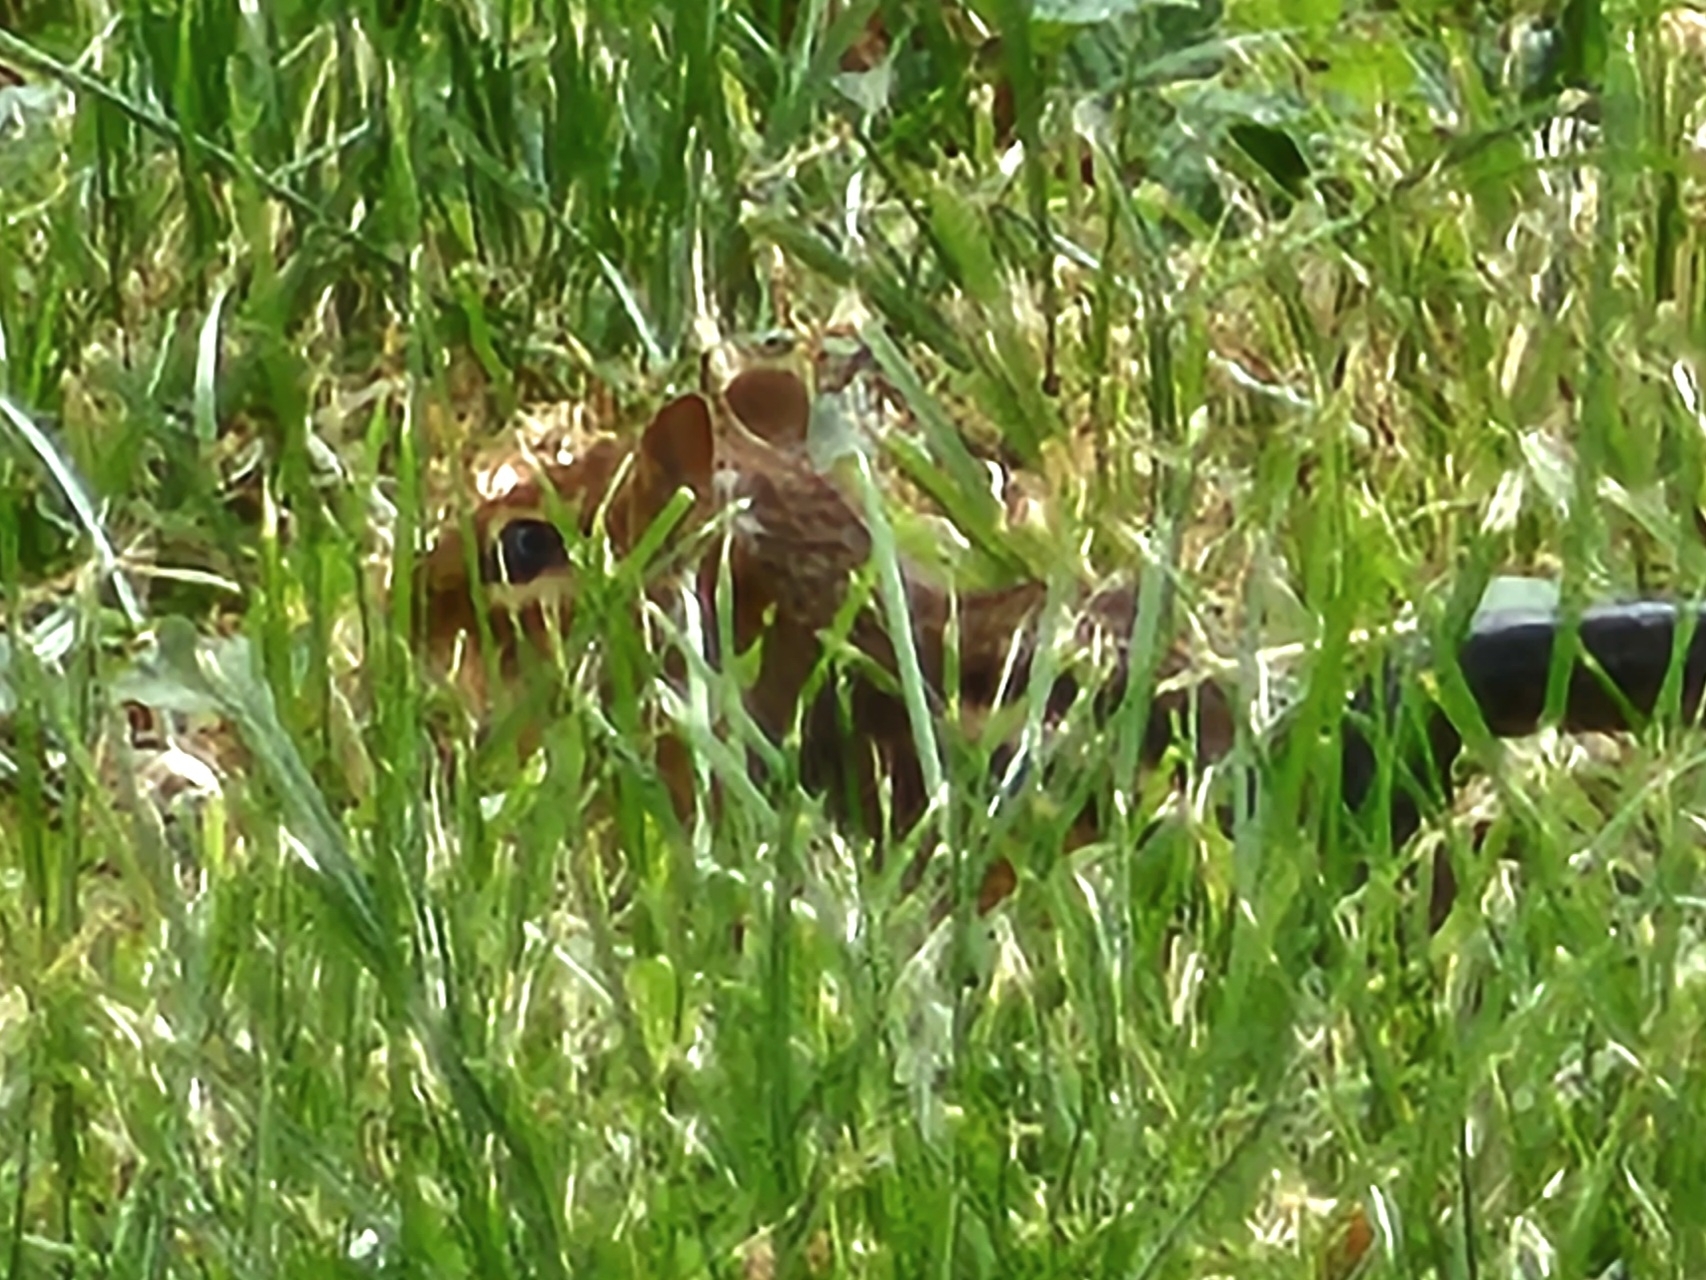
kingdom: Animalia
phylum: Chordata
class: Mammalia
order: Rodentia
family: Sciuridae
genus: Tamias
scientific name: Tamias striatus
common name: Eastern chipmunk
